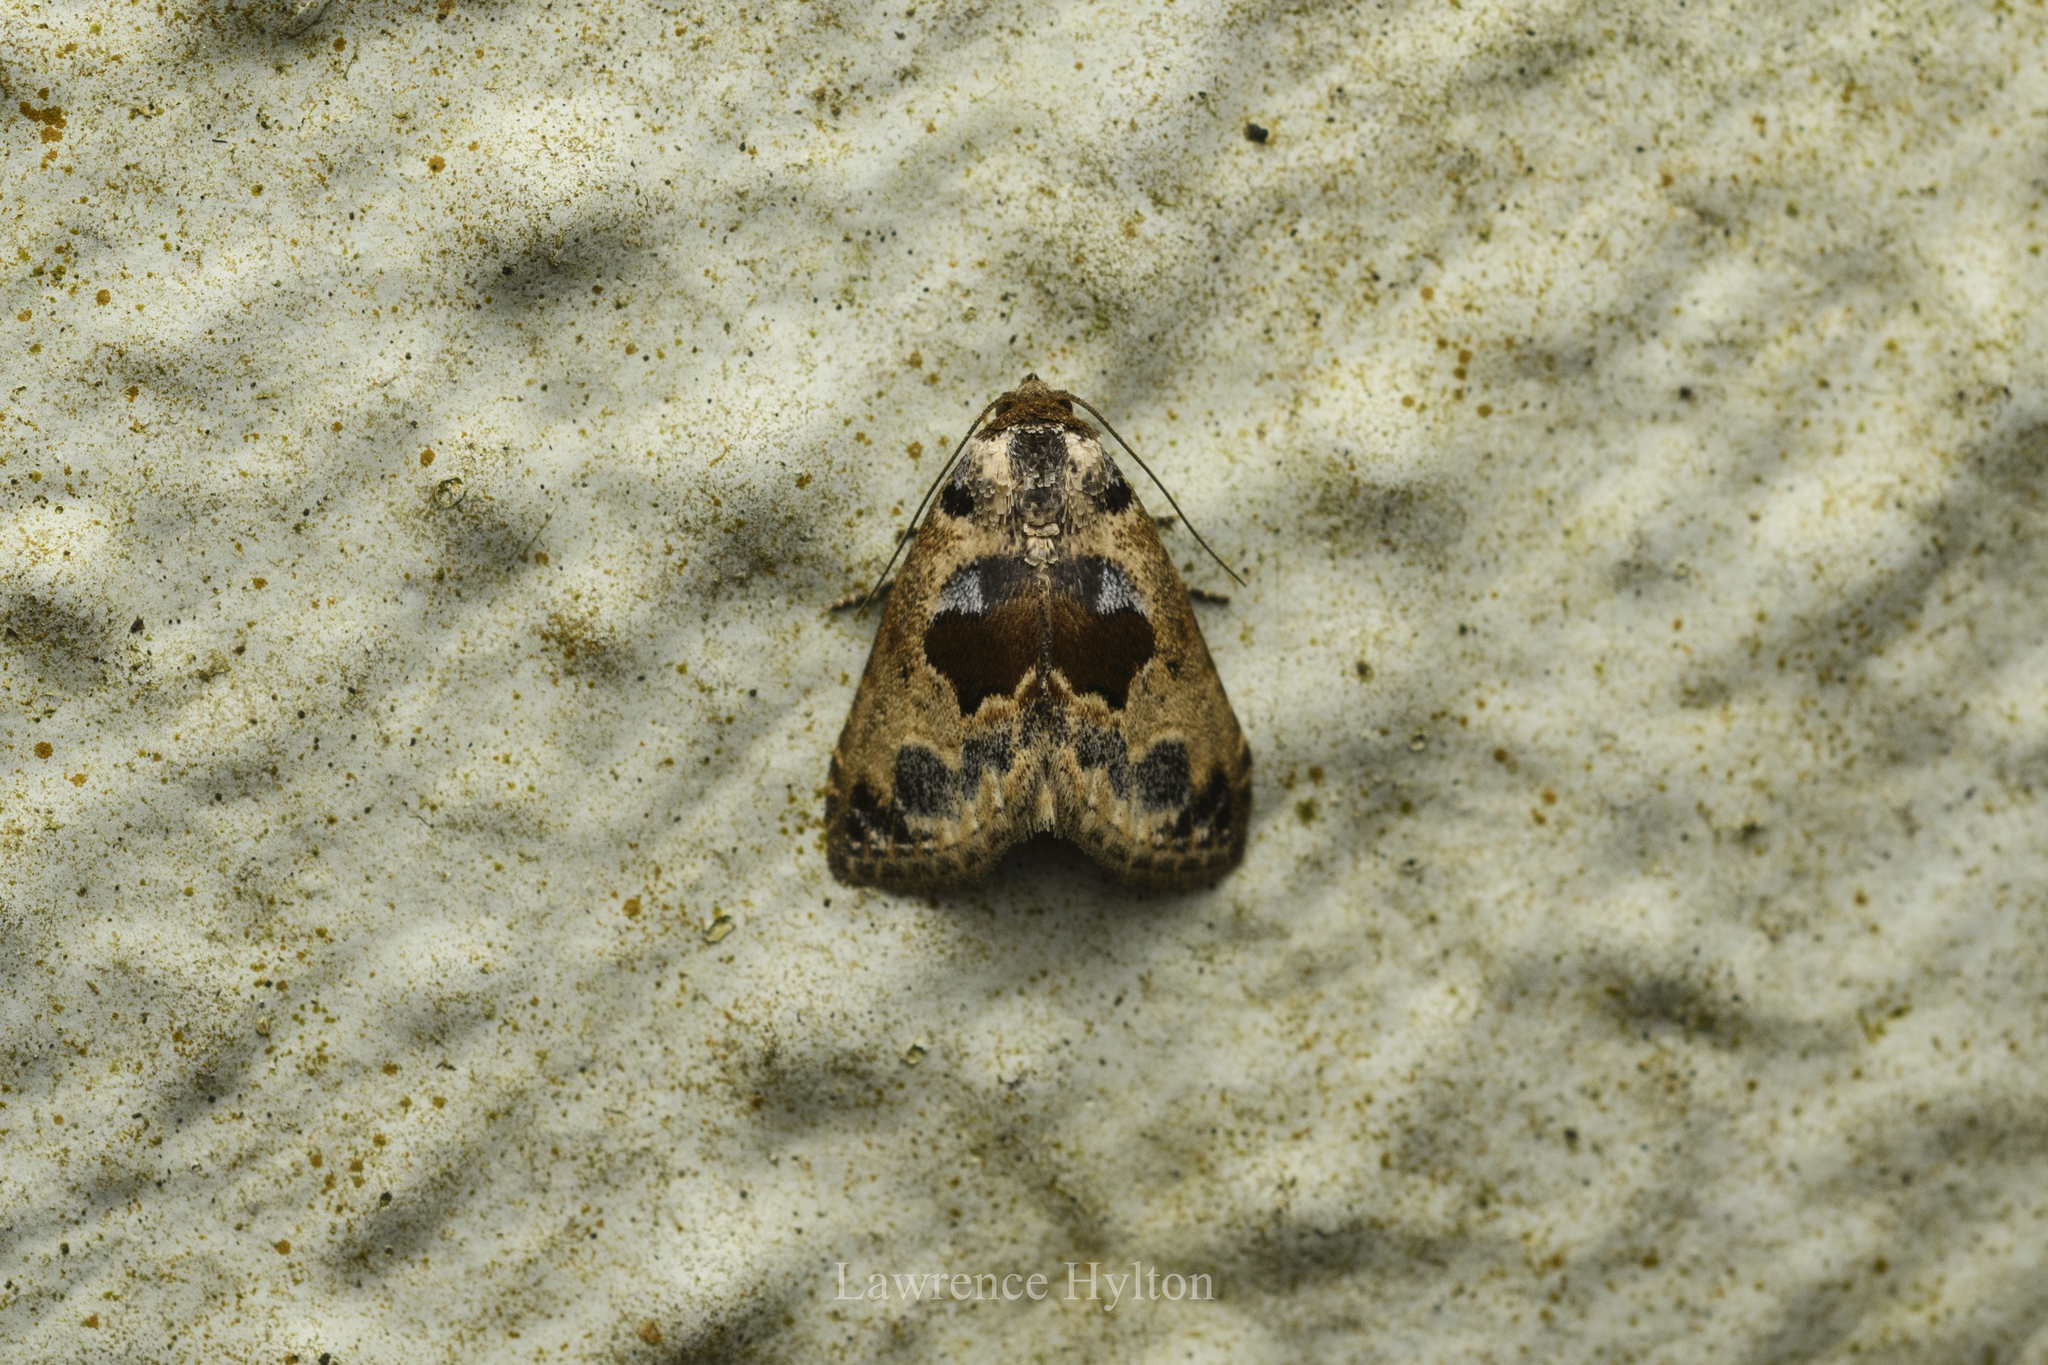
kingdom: Animalia
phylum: Arthropoda
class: Insecta
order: Lepidoptera
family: Noctuidae
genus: Meekistrotia
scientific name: Meekistrotia
